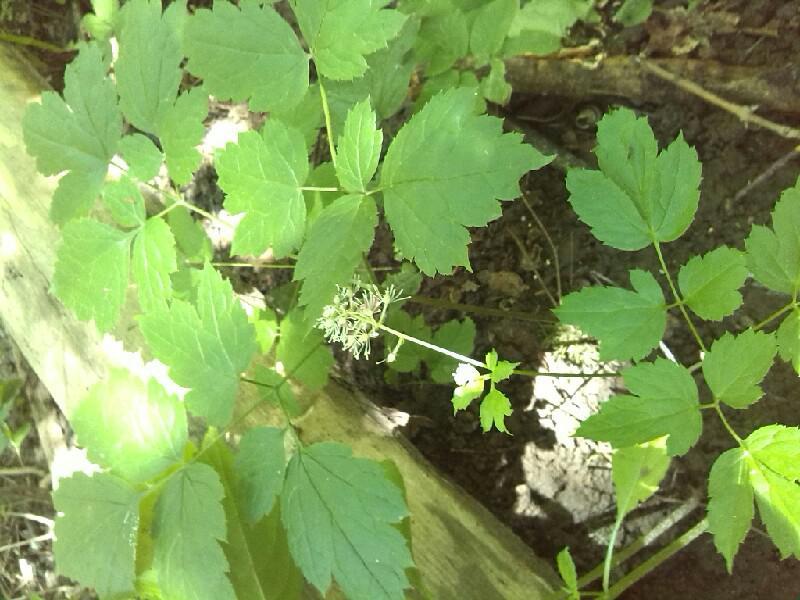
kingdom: Plantae
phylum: Tracheophyta
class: Magnoliopsida
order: Ranunculales
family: Ranunculaceae
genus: Actaea
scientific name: Actaea spicata
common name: Baneberry
